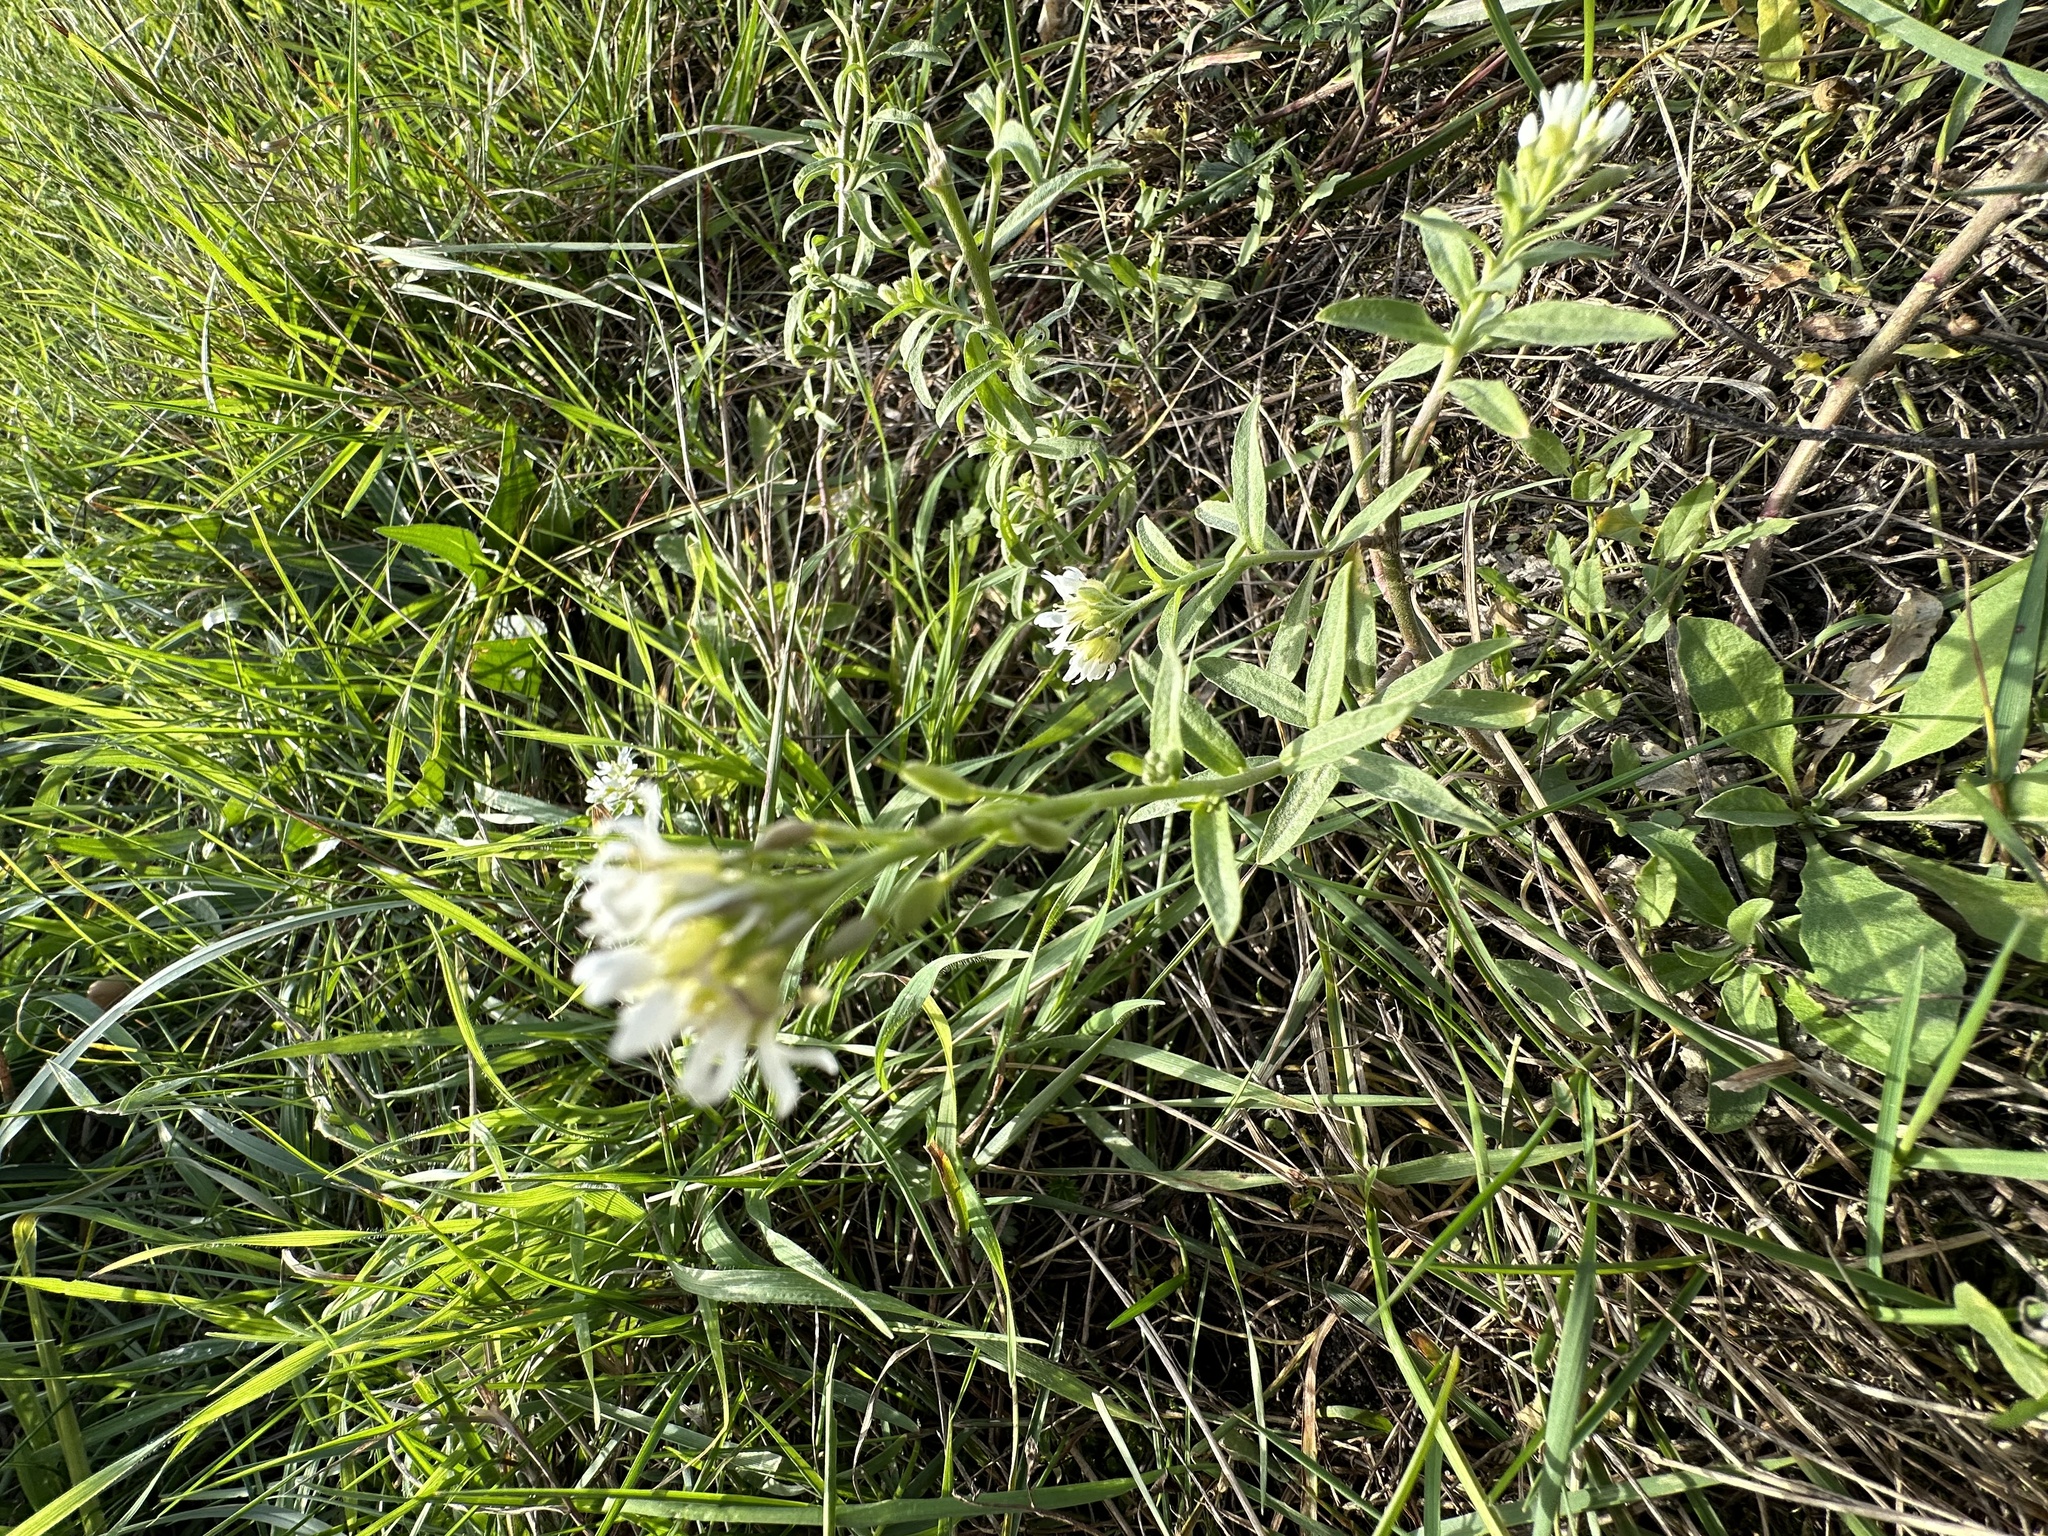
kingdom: Plantae
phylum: Tracheophyta
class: Magnoliopsida
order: Brassicales
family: Brassicaceae
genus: Berteroa
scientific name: Berteroa incana
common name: Hoary alison
